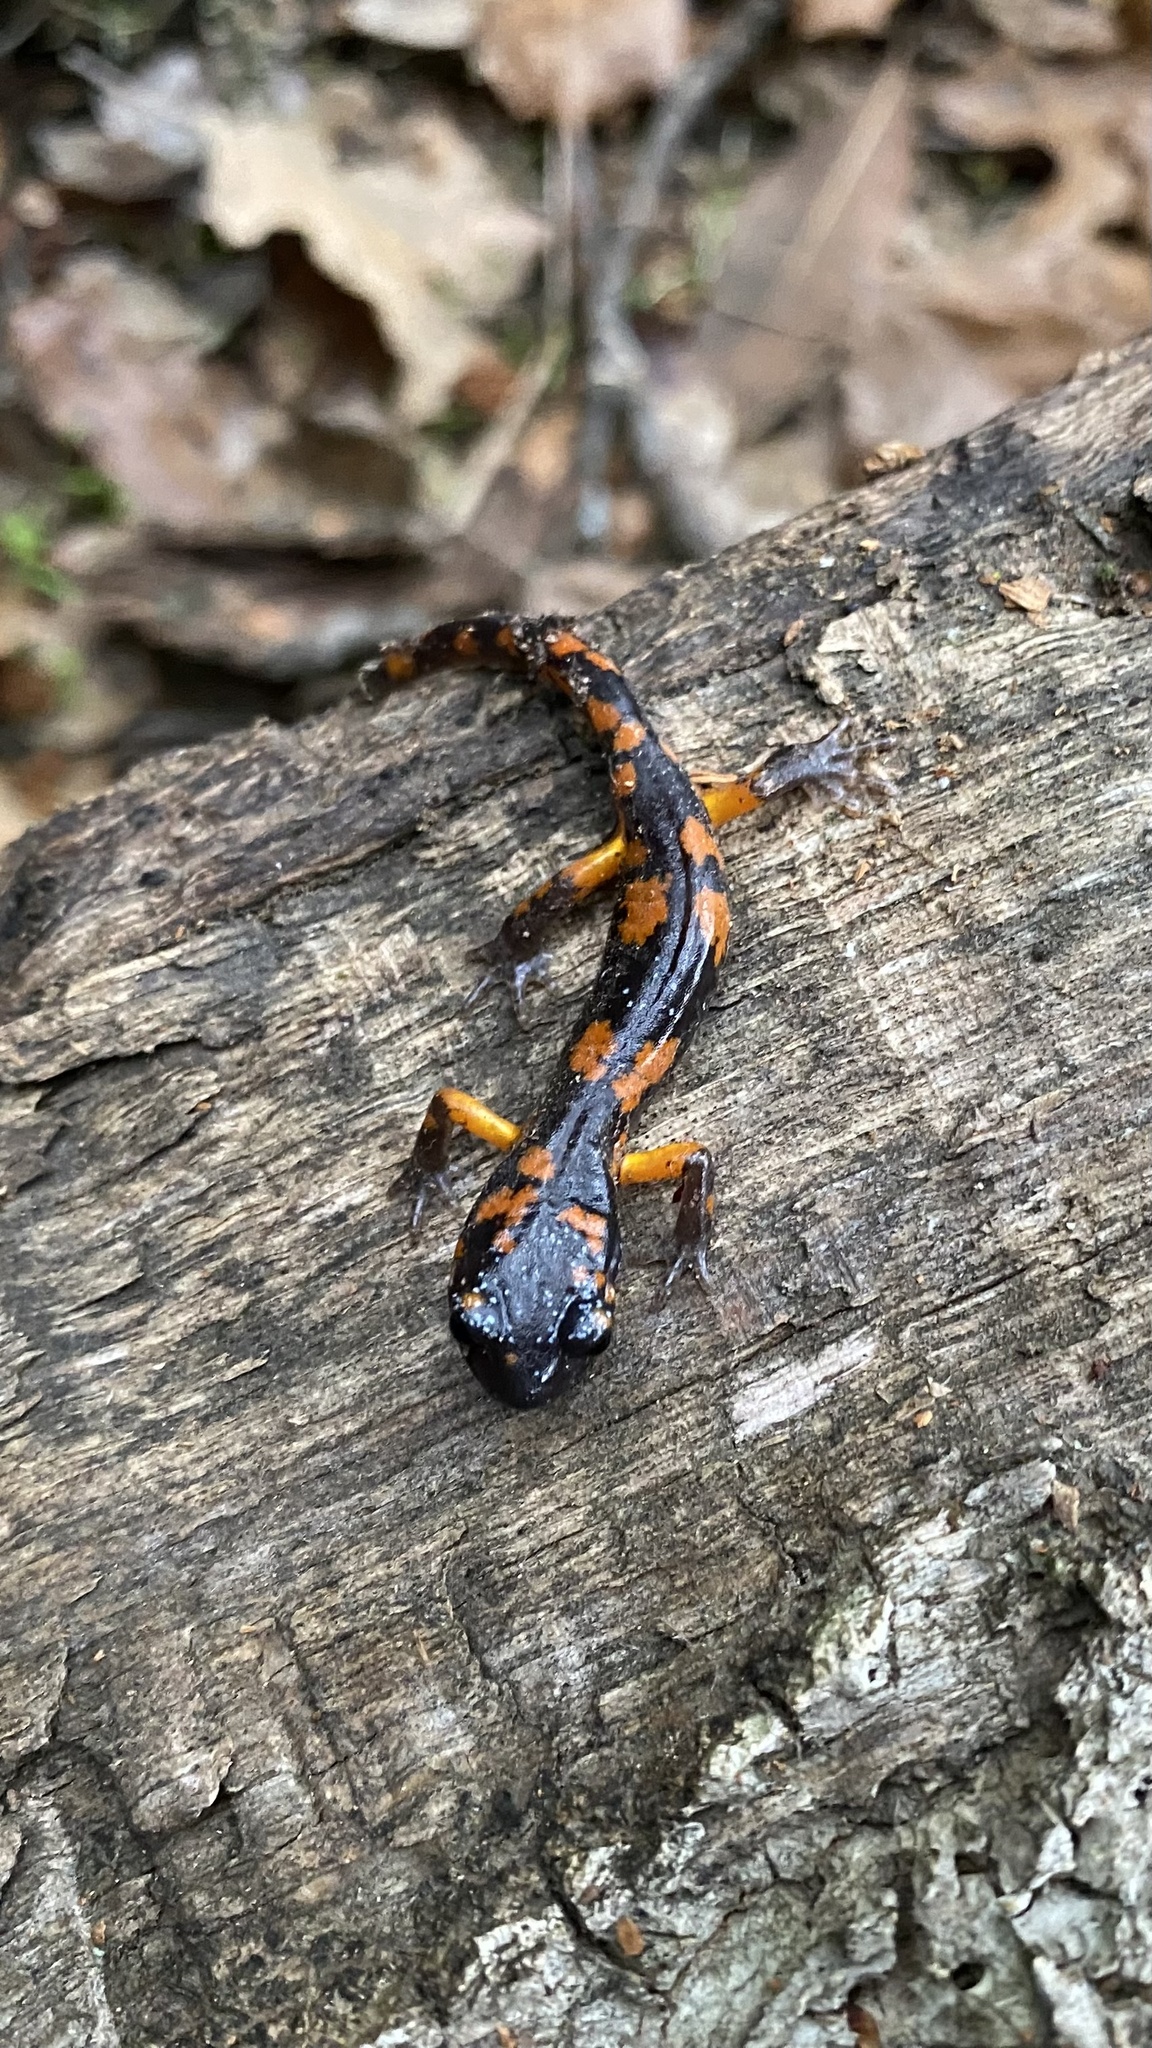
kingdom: Animalia
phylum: Chordata
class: Amphibia
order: Caudata
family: Plethodontidae
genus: Ensatina
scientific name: Ensatina eschscholtzii
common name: Ensatina
